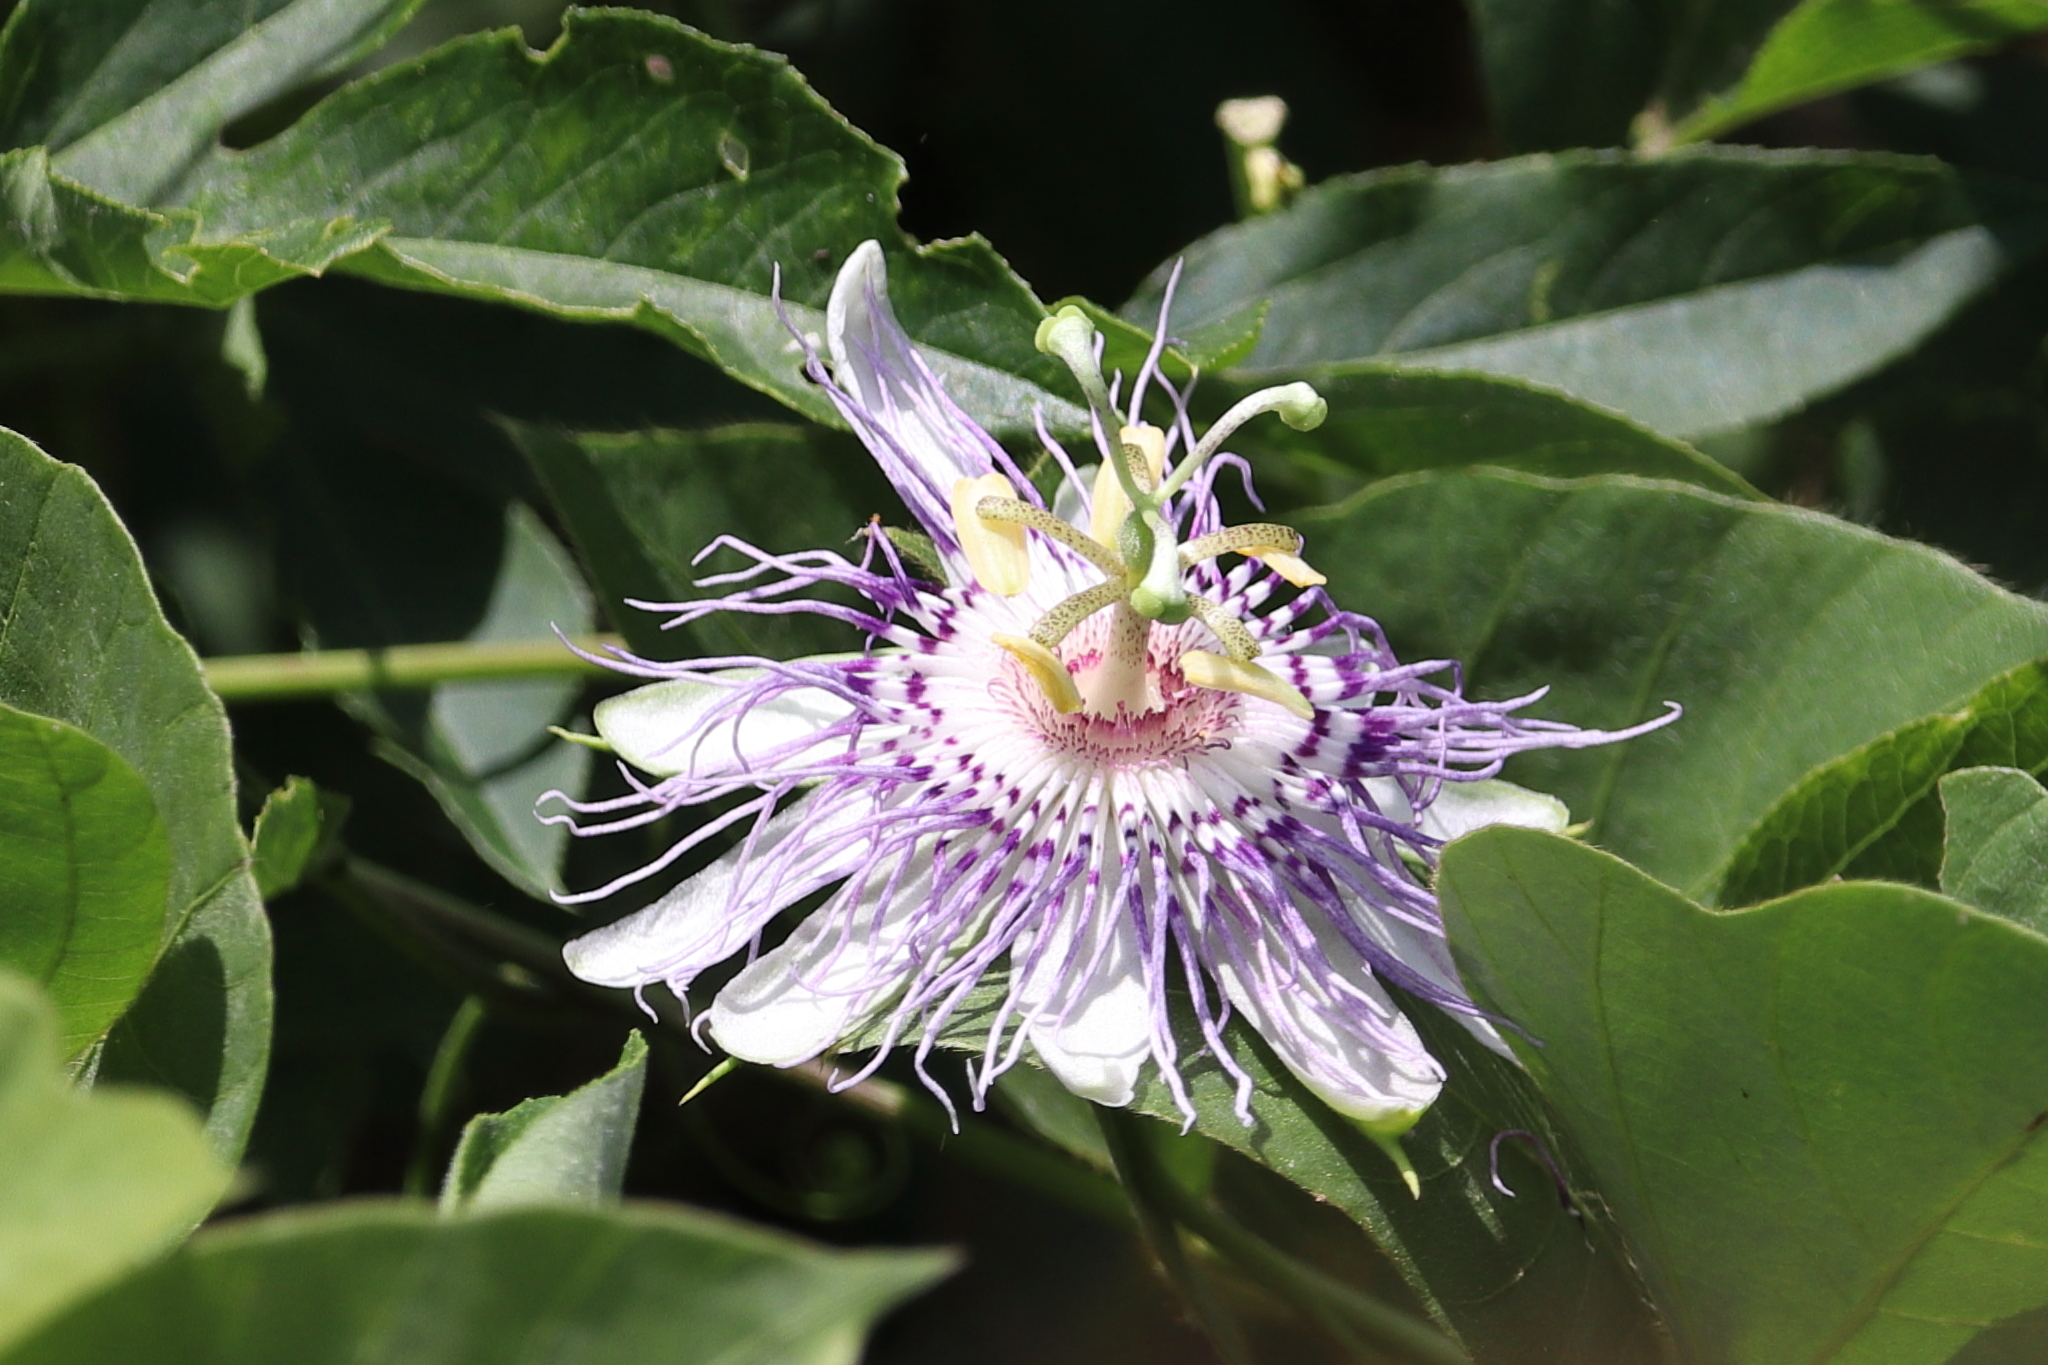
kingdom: Plantae
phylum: Tracheophyta
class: Magnoliopsida
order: Malpighiales
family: Passifloraceae
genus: Passiflora
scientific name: Passiflora incarnata
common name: Apricot-vine
